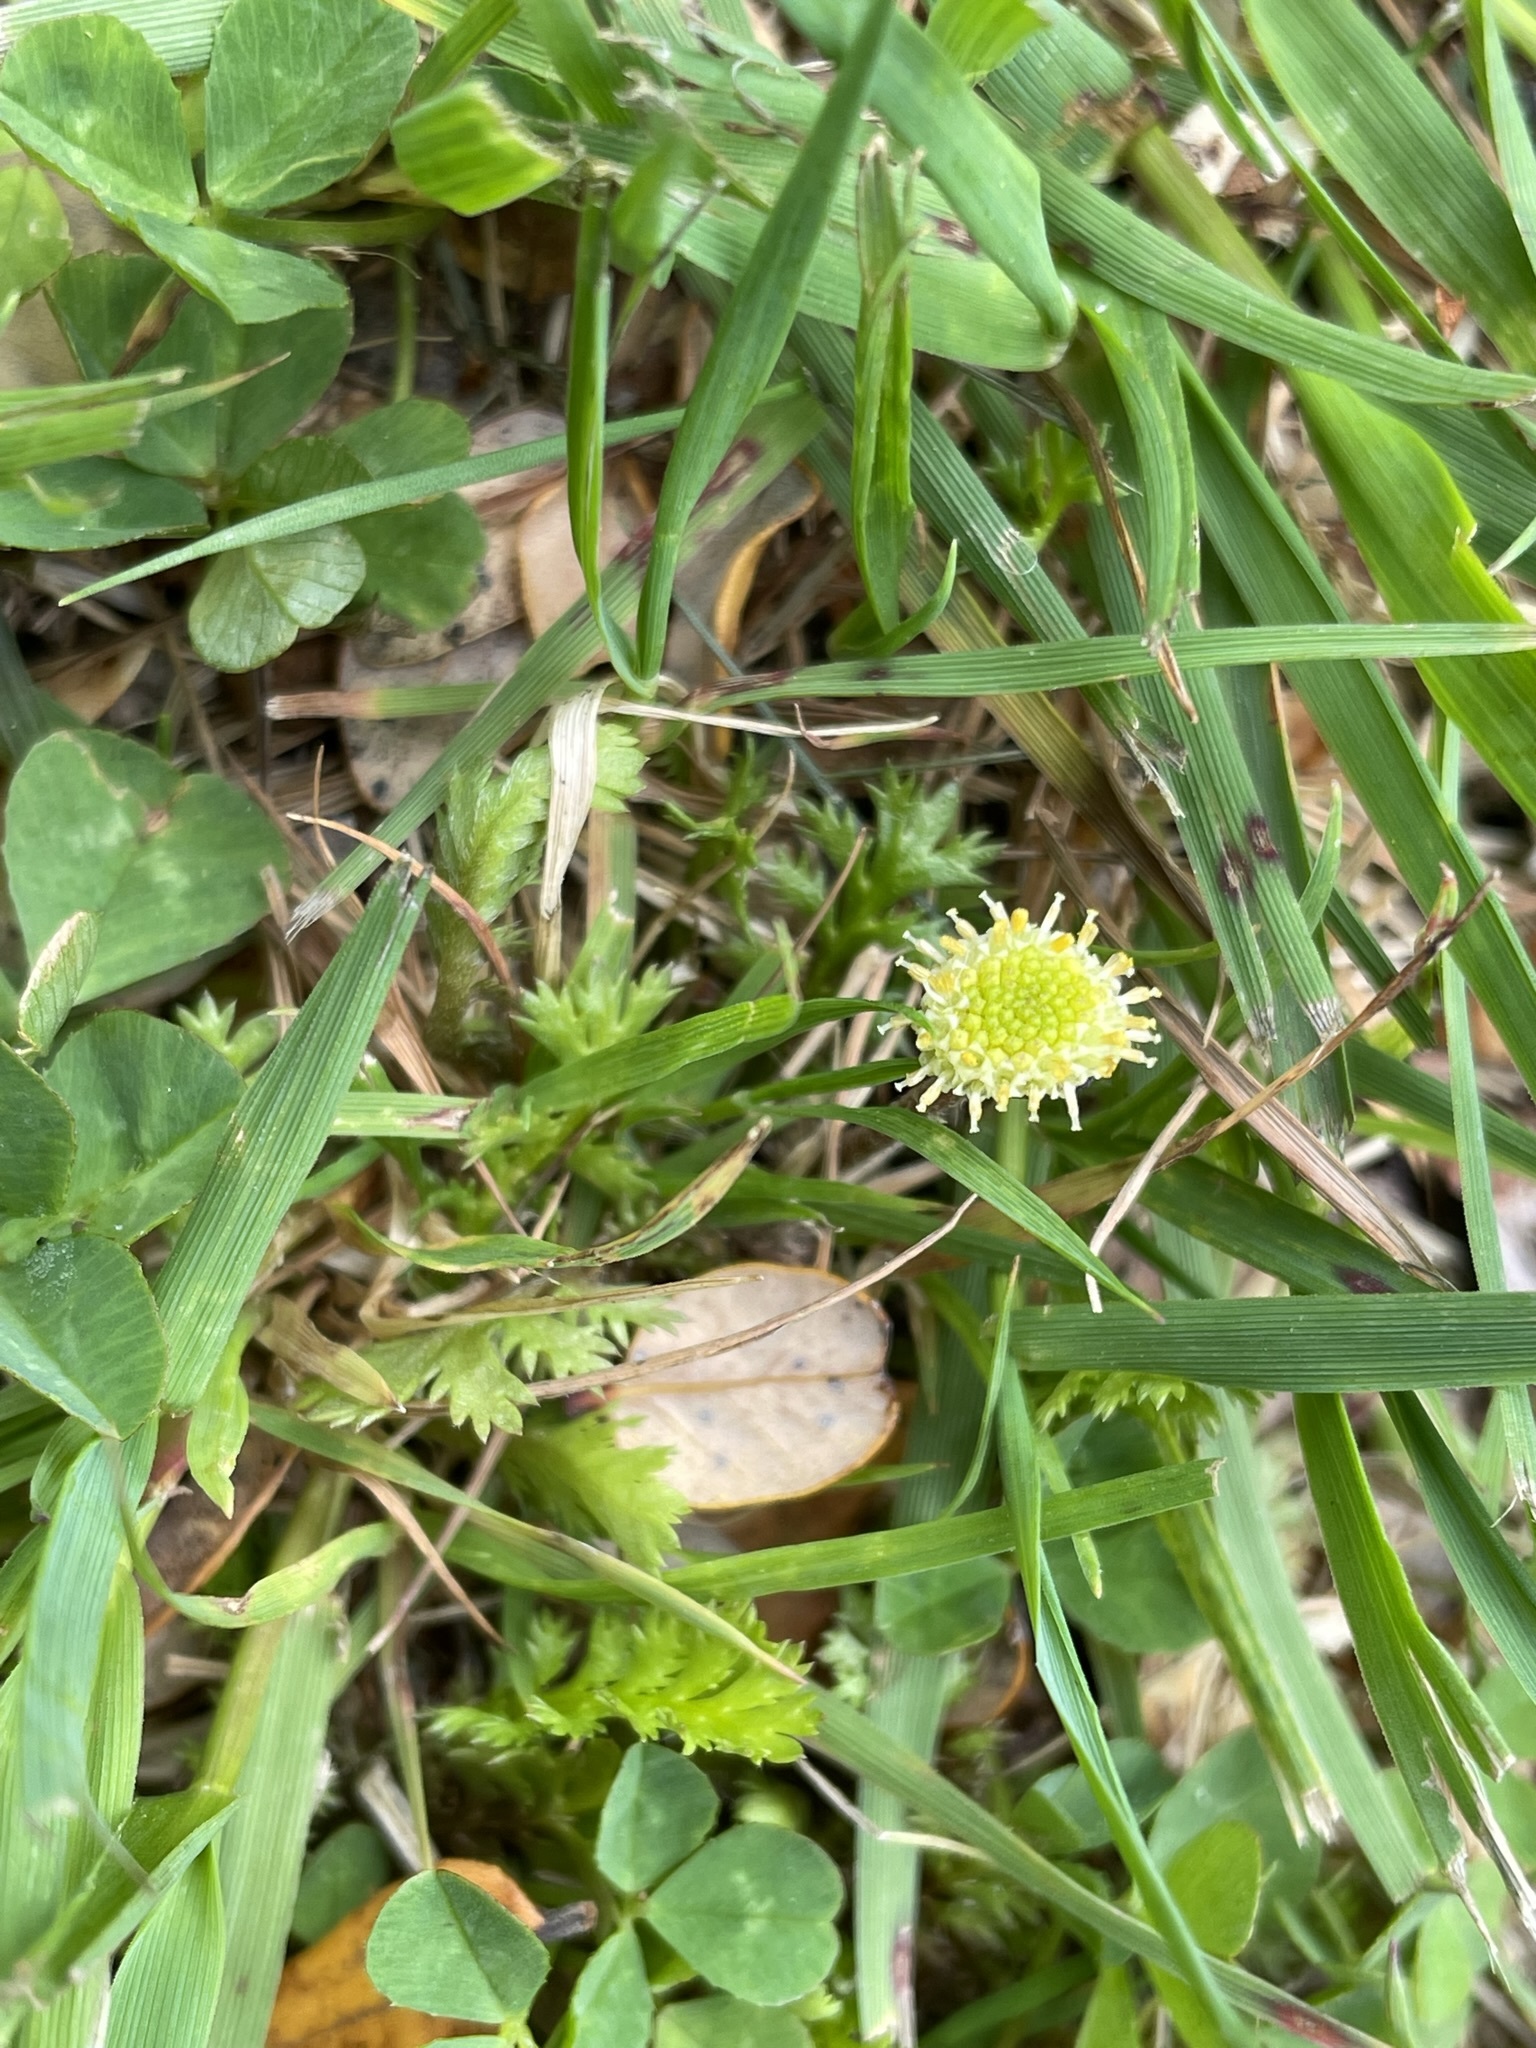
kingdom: Plantae
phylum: Tracheophyta
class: Magnoliopsida
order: Asterales
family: Asteraceae
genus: Leptinella
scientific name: Leptinella squalida
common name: New zealand brass-buttons
